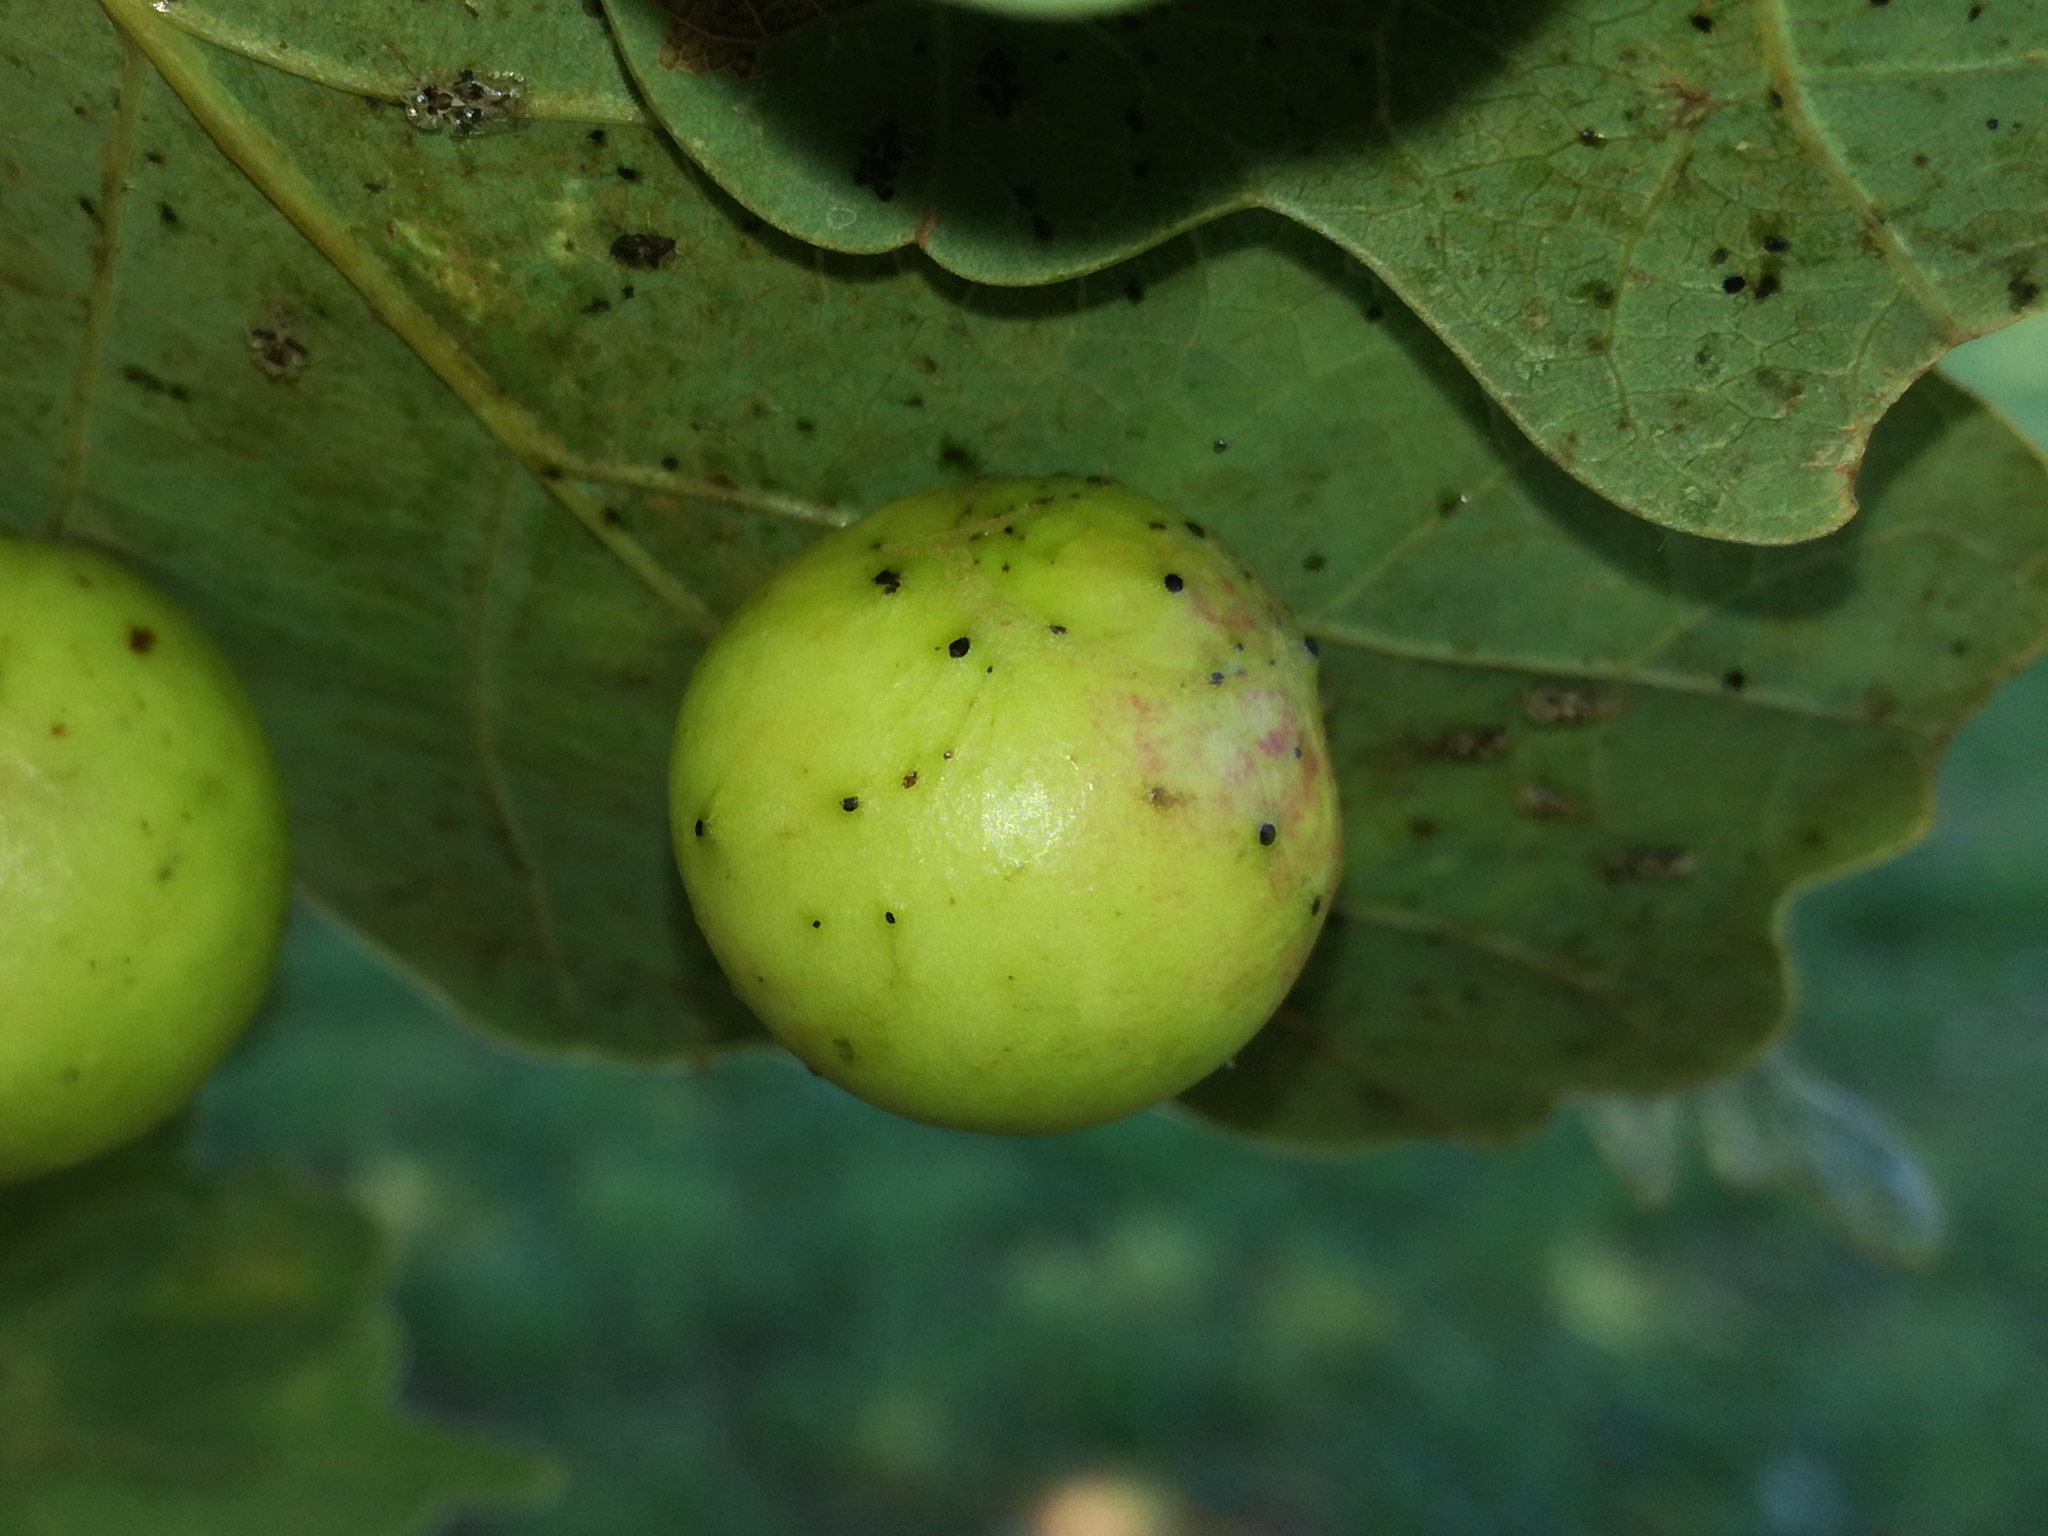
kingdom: Animalia
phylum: Arthropoda
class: Insecta
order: Hymenoptera
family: Cynipidae
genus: Cynips
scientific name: Cynips quercusfolii
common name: Cherry gall
